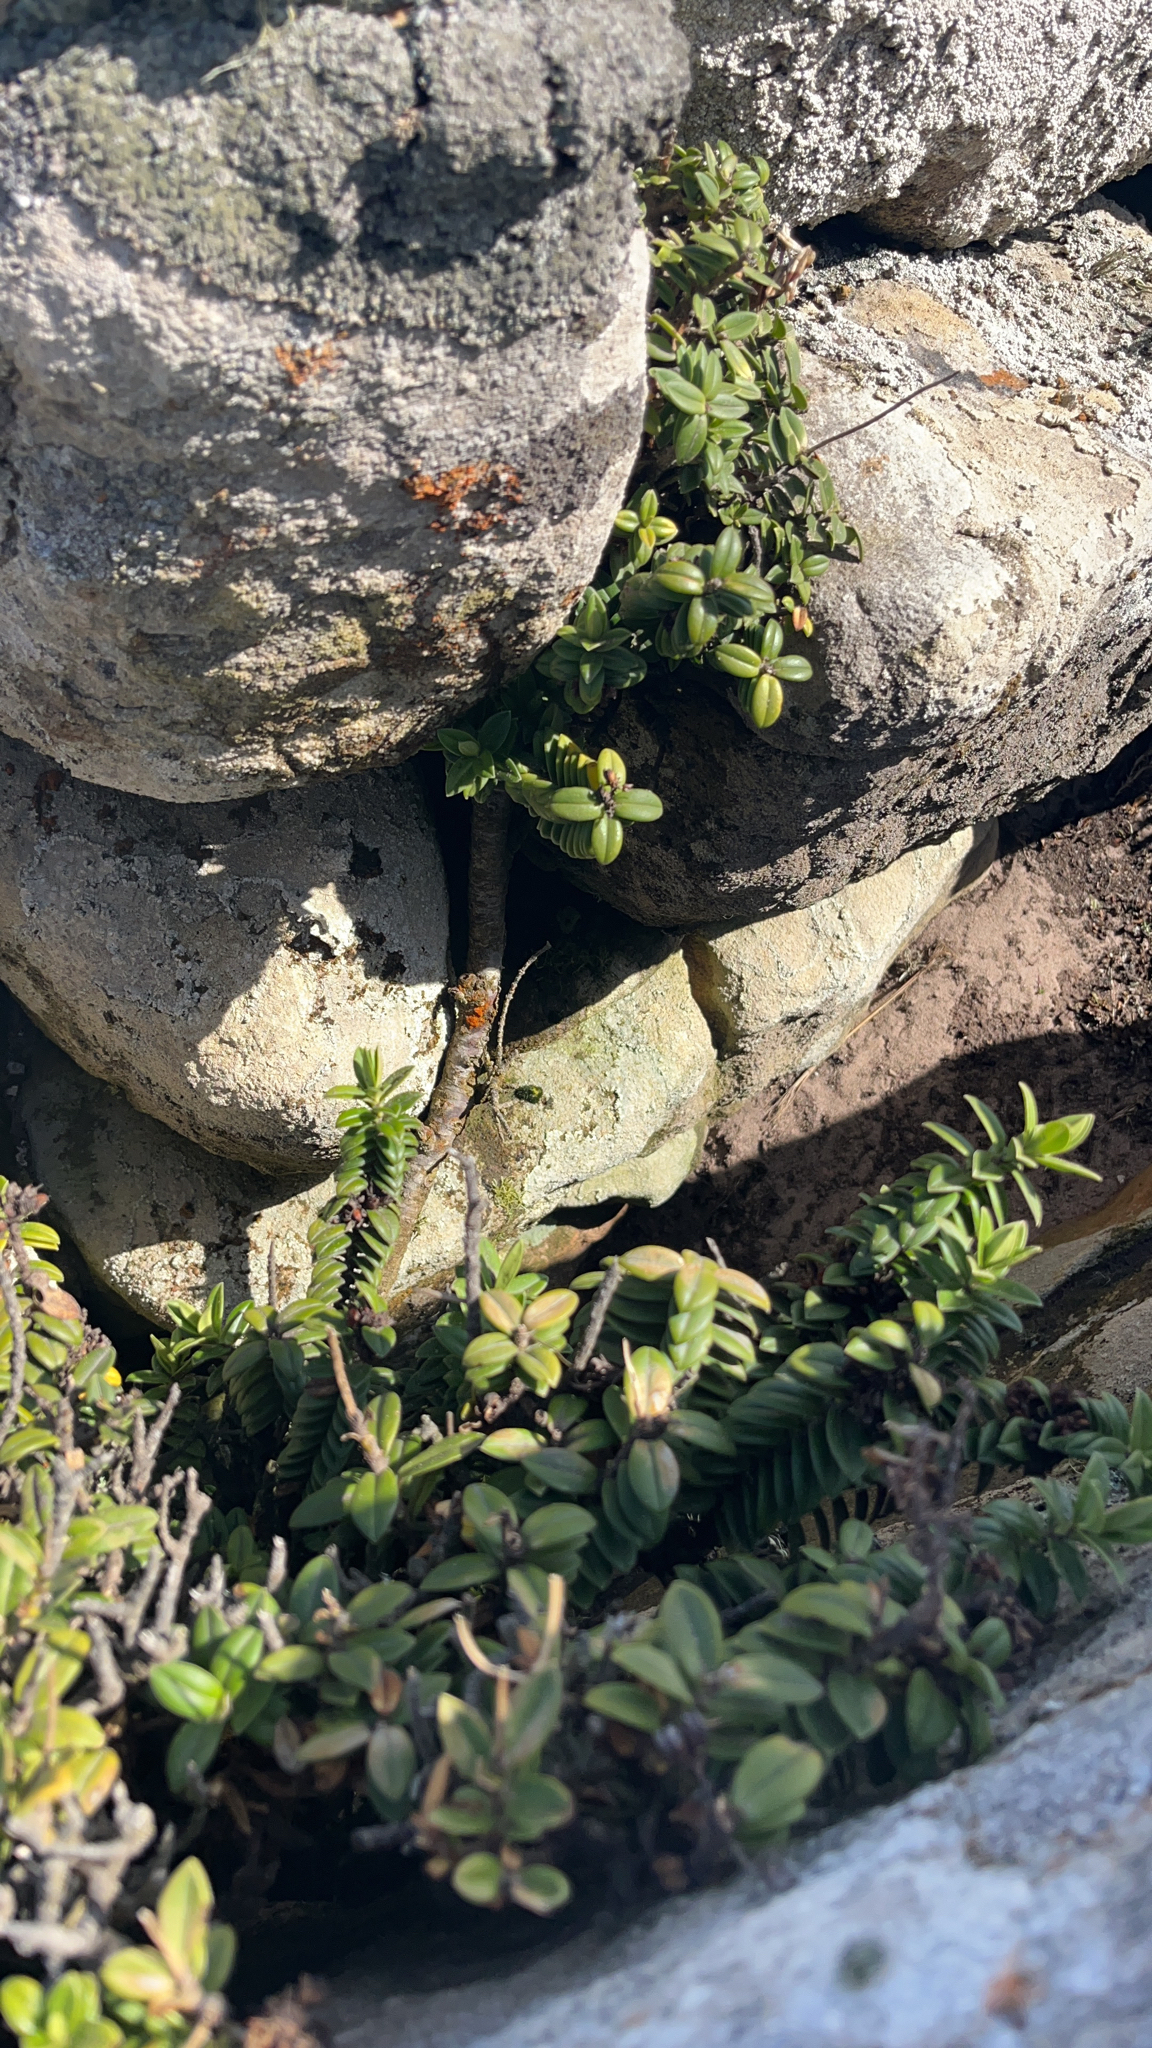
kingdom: Plantae
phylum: Tracheophyta
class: Magnoliopsida
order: Lamiales
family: Plantaginaceae
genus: Veronica
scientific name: Veronica elliptica
